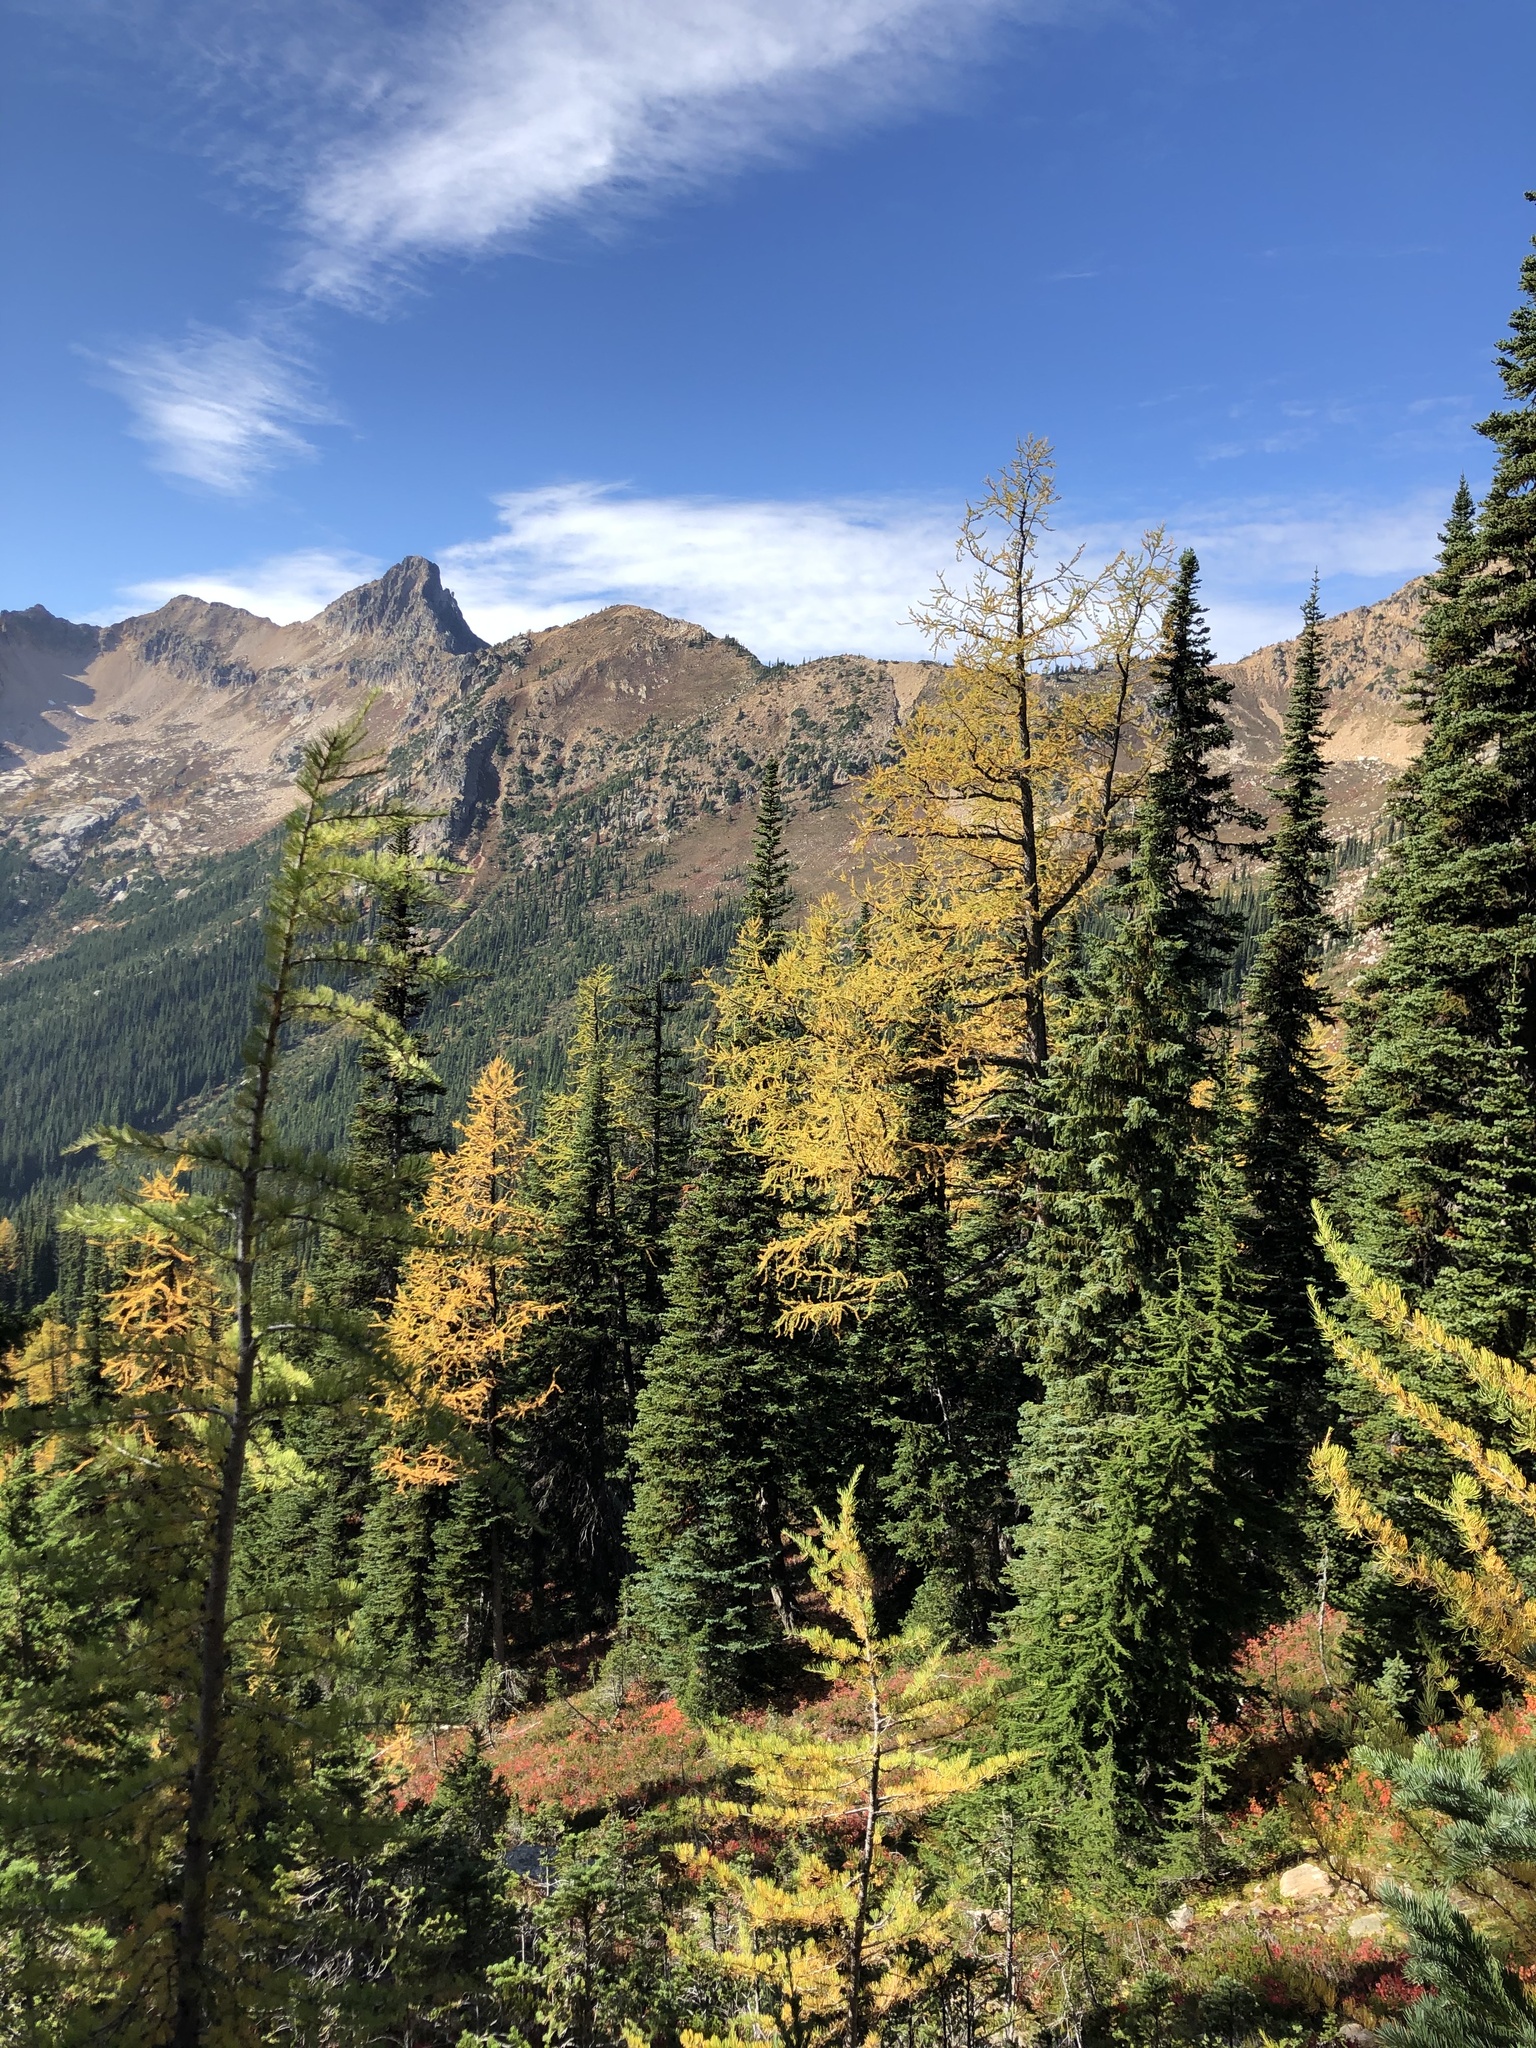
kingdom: Plantae
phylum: Tracheophyta
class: Pinopsida
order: Pinales
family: Pinaceae
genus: Larix
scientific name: Larix lyallii
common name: Alpine larch
